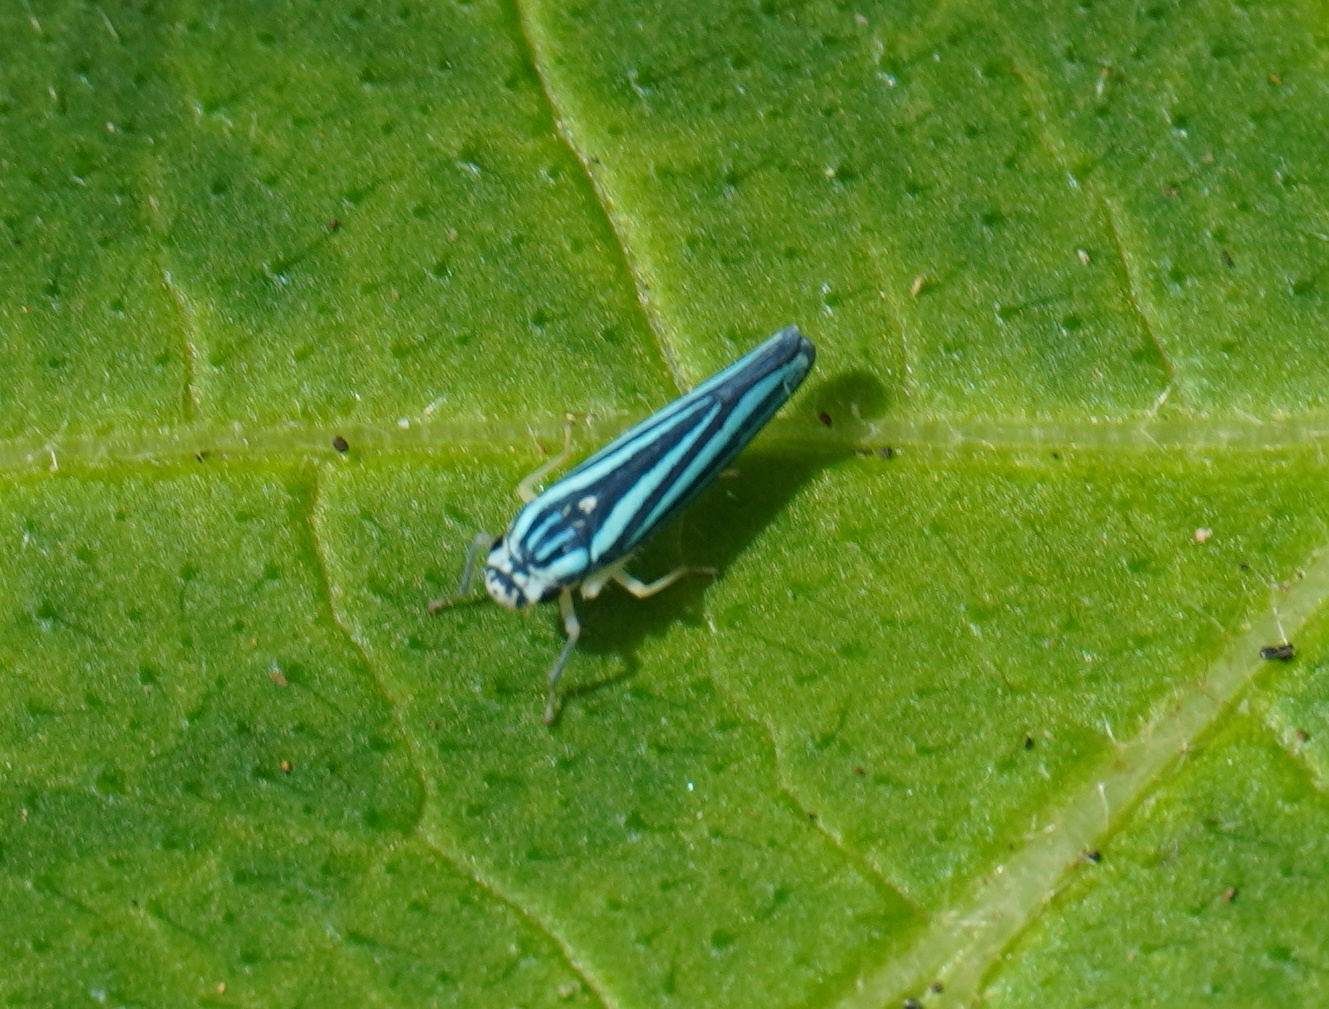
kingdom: Animalia
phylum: Arthropoda
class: Insecta
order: Hemiptera
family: Cicadellidae
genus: Tettigoniella
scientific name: Tettigoniella cosmopolita
